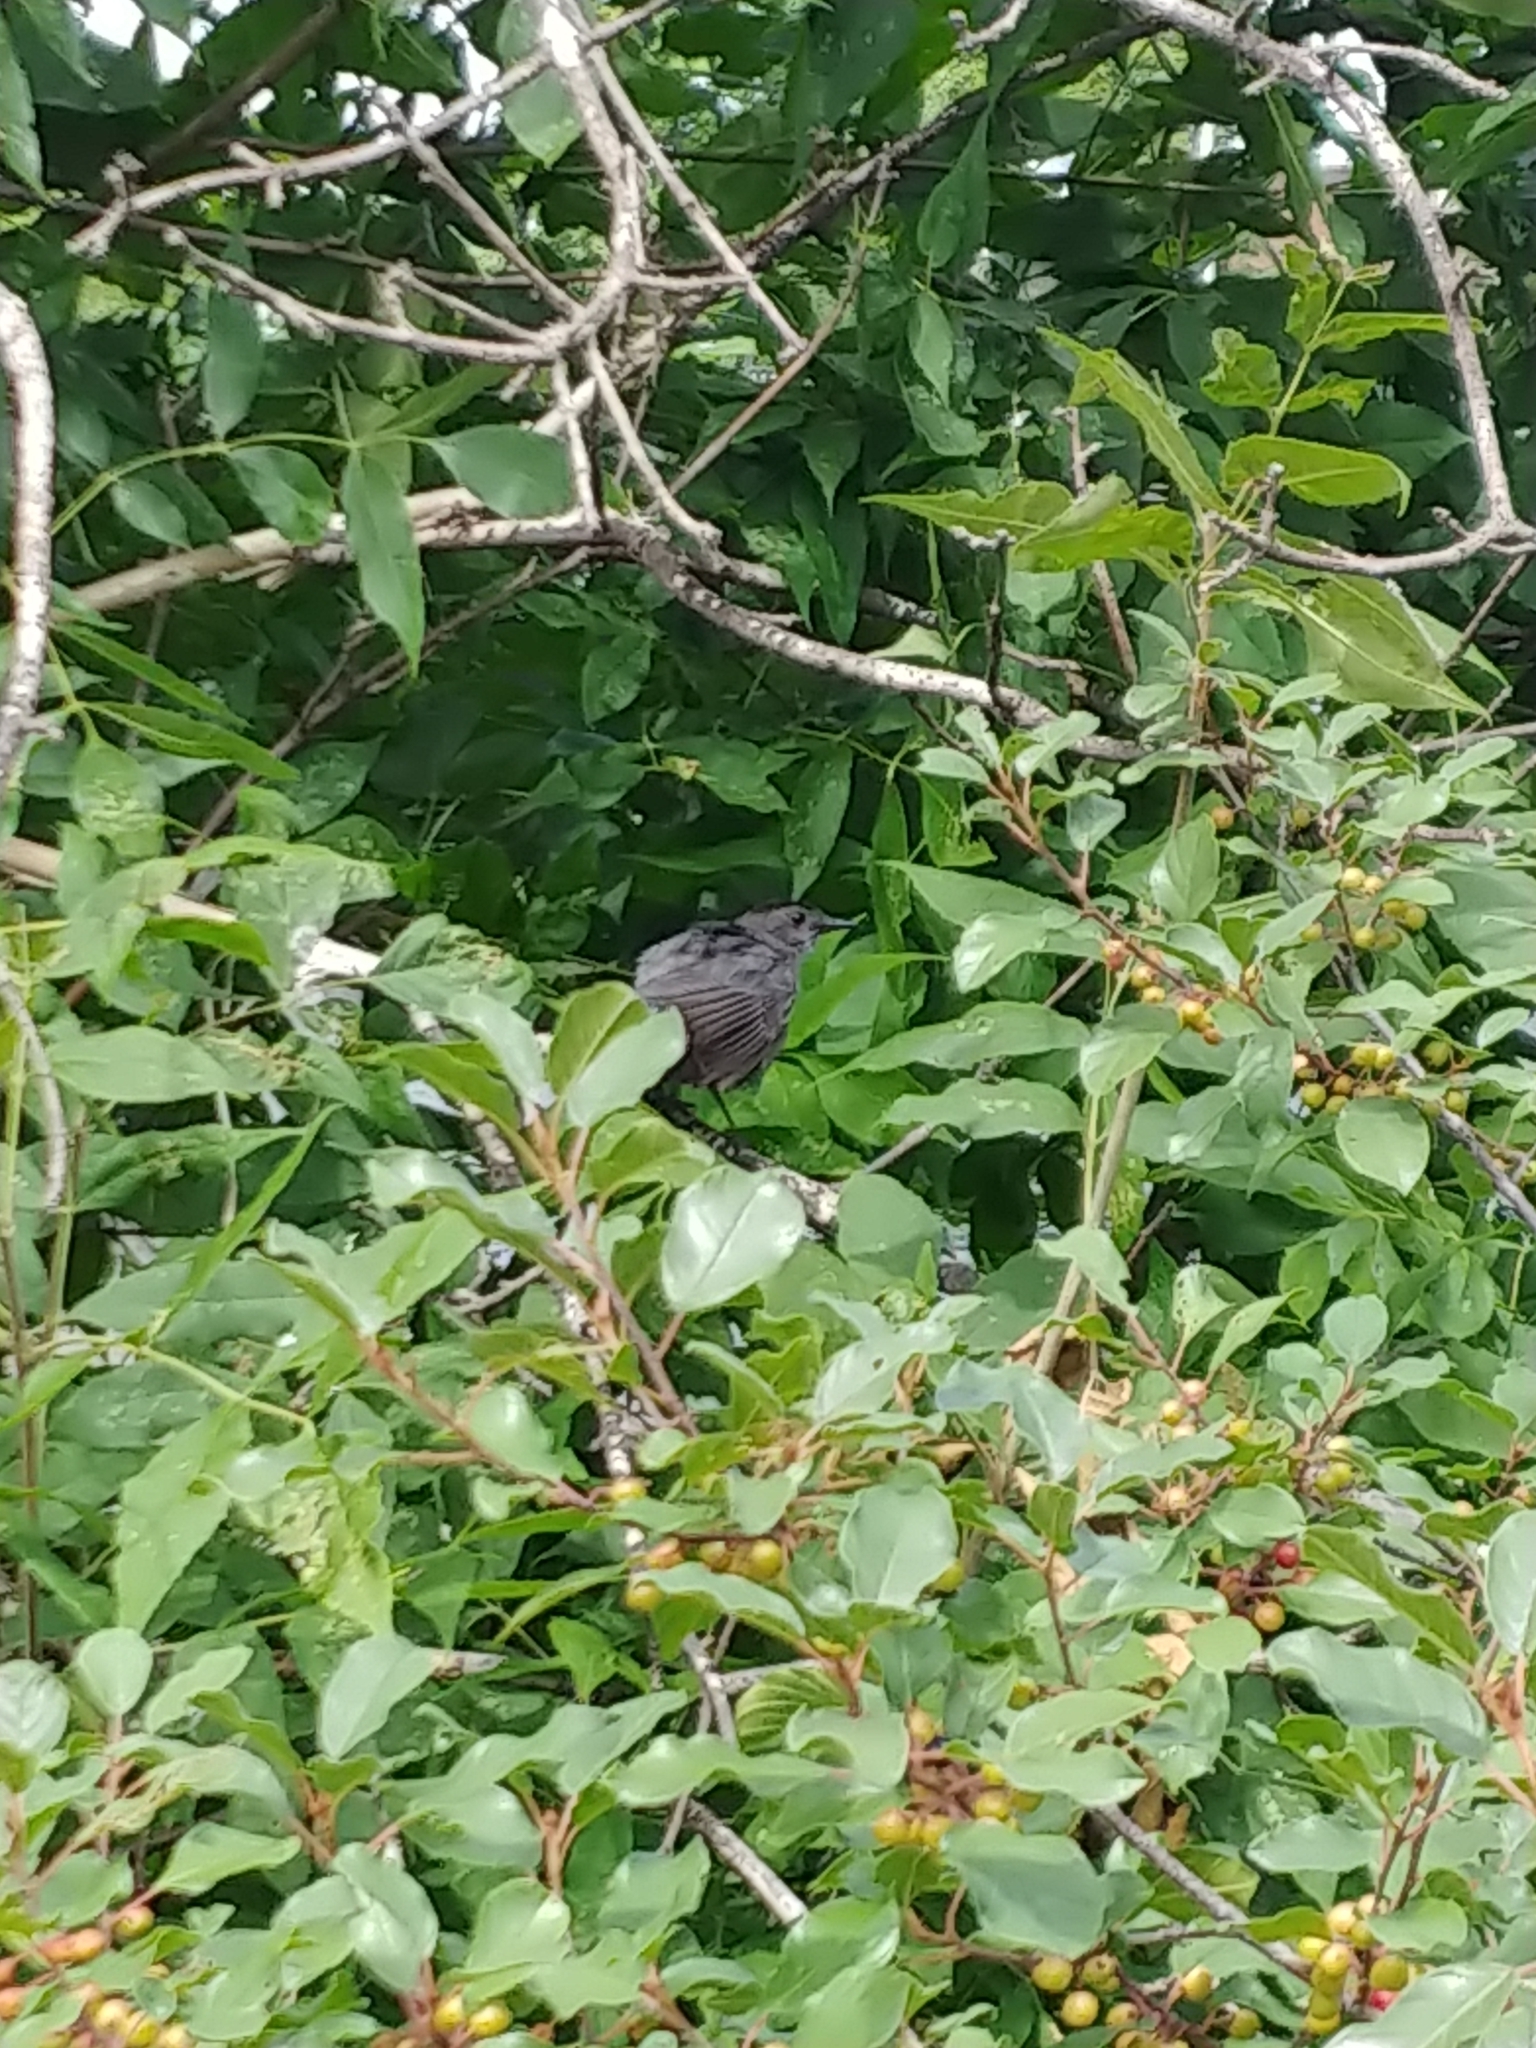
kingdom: Animalia
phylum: Chordata
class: Aves
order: Passeriformes
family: Mimidae
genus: Dumetella
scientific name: Dumetella carolinensis
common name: Gray catbird
